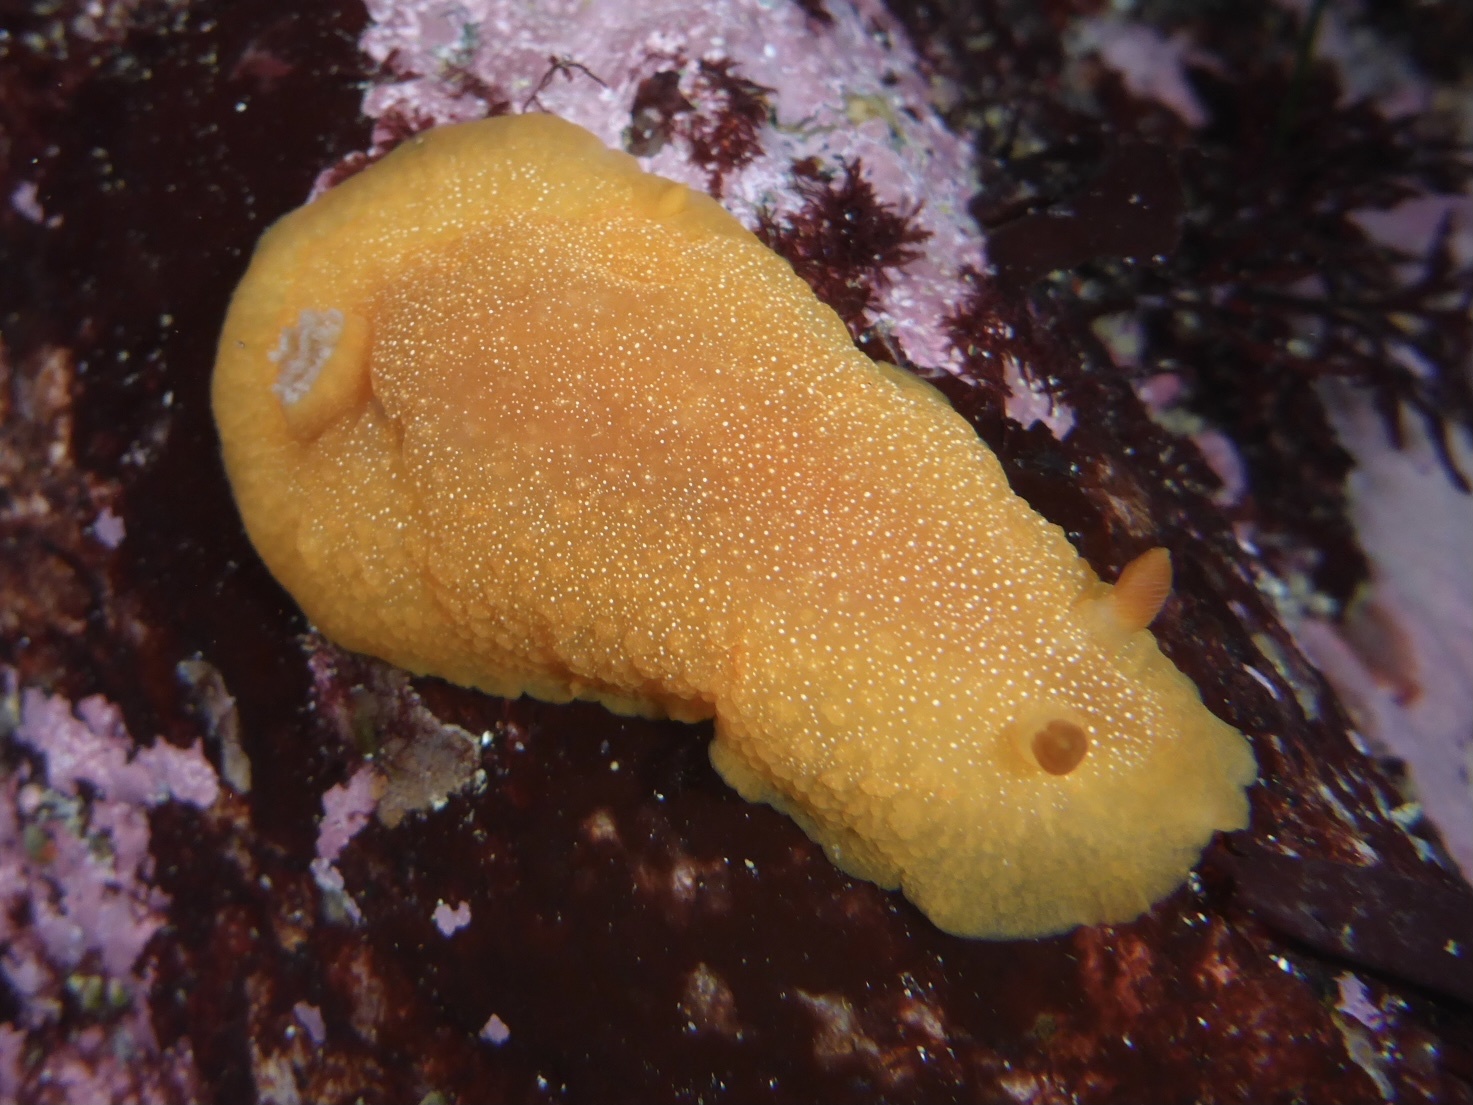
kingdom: Animalia
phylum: Mollusca
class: Gastropoda
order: Nudibranchia
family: Dendrodorididae
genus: Doriopsilla
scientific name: Doriopsilla albopunctata
